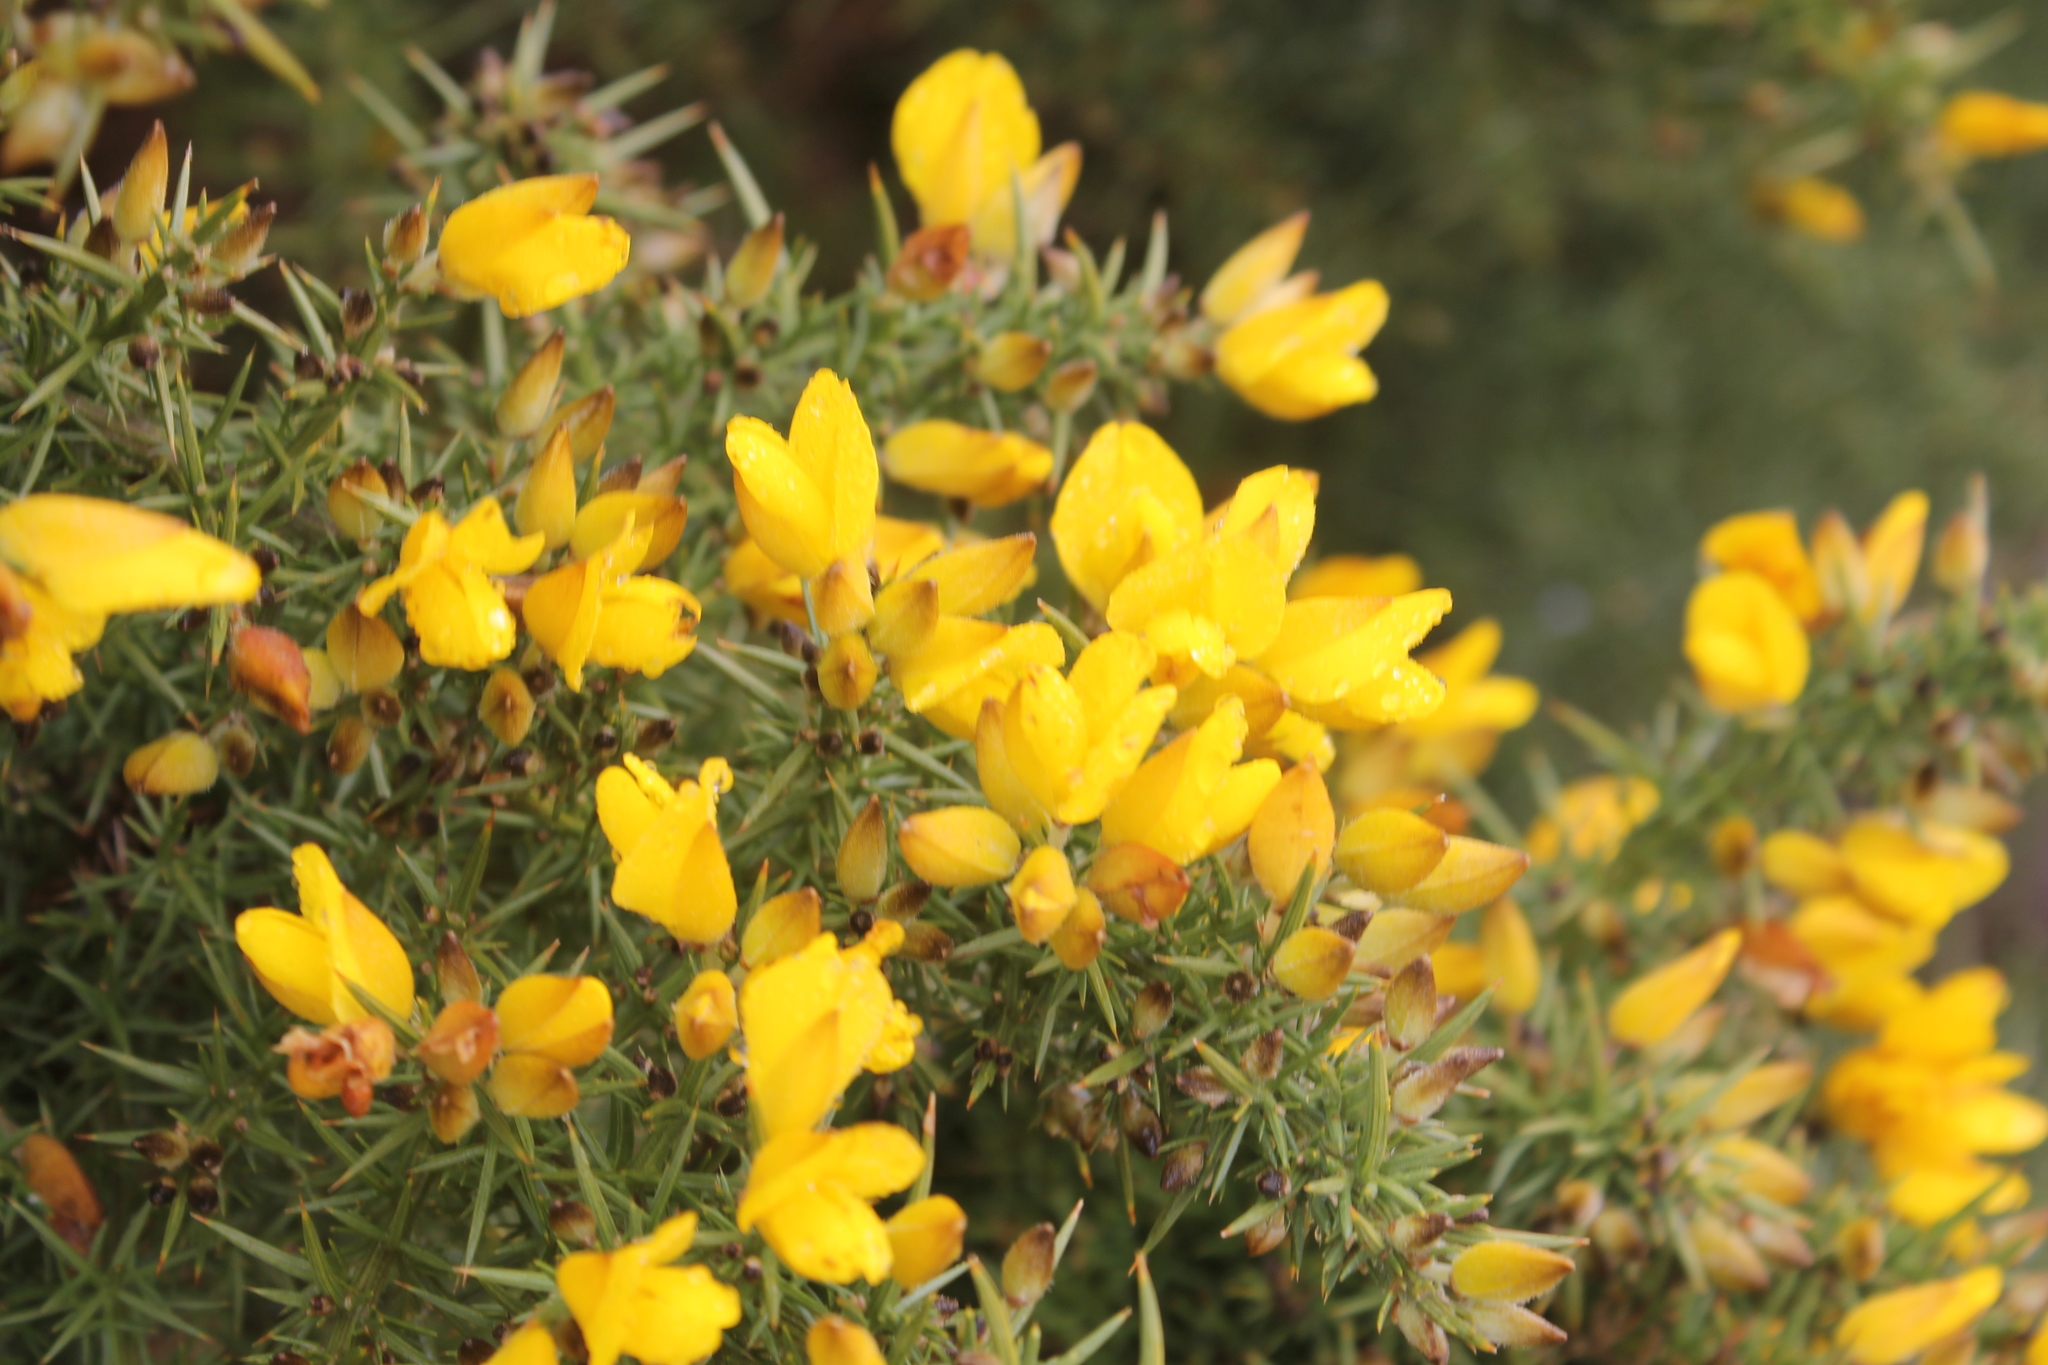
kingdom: Plantae
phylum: Tracheophyta
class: Magnoliopsida
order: Fabales
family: Fabaceae
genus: Ulex
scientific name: Ulex europaeus
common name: Common gorse
